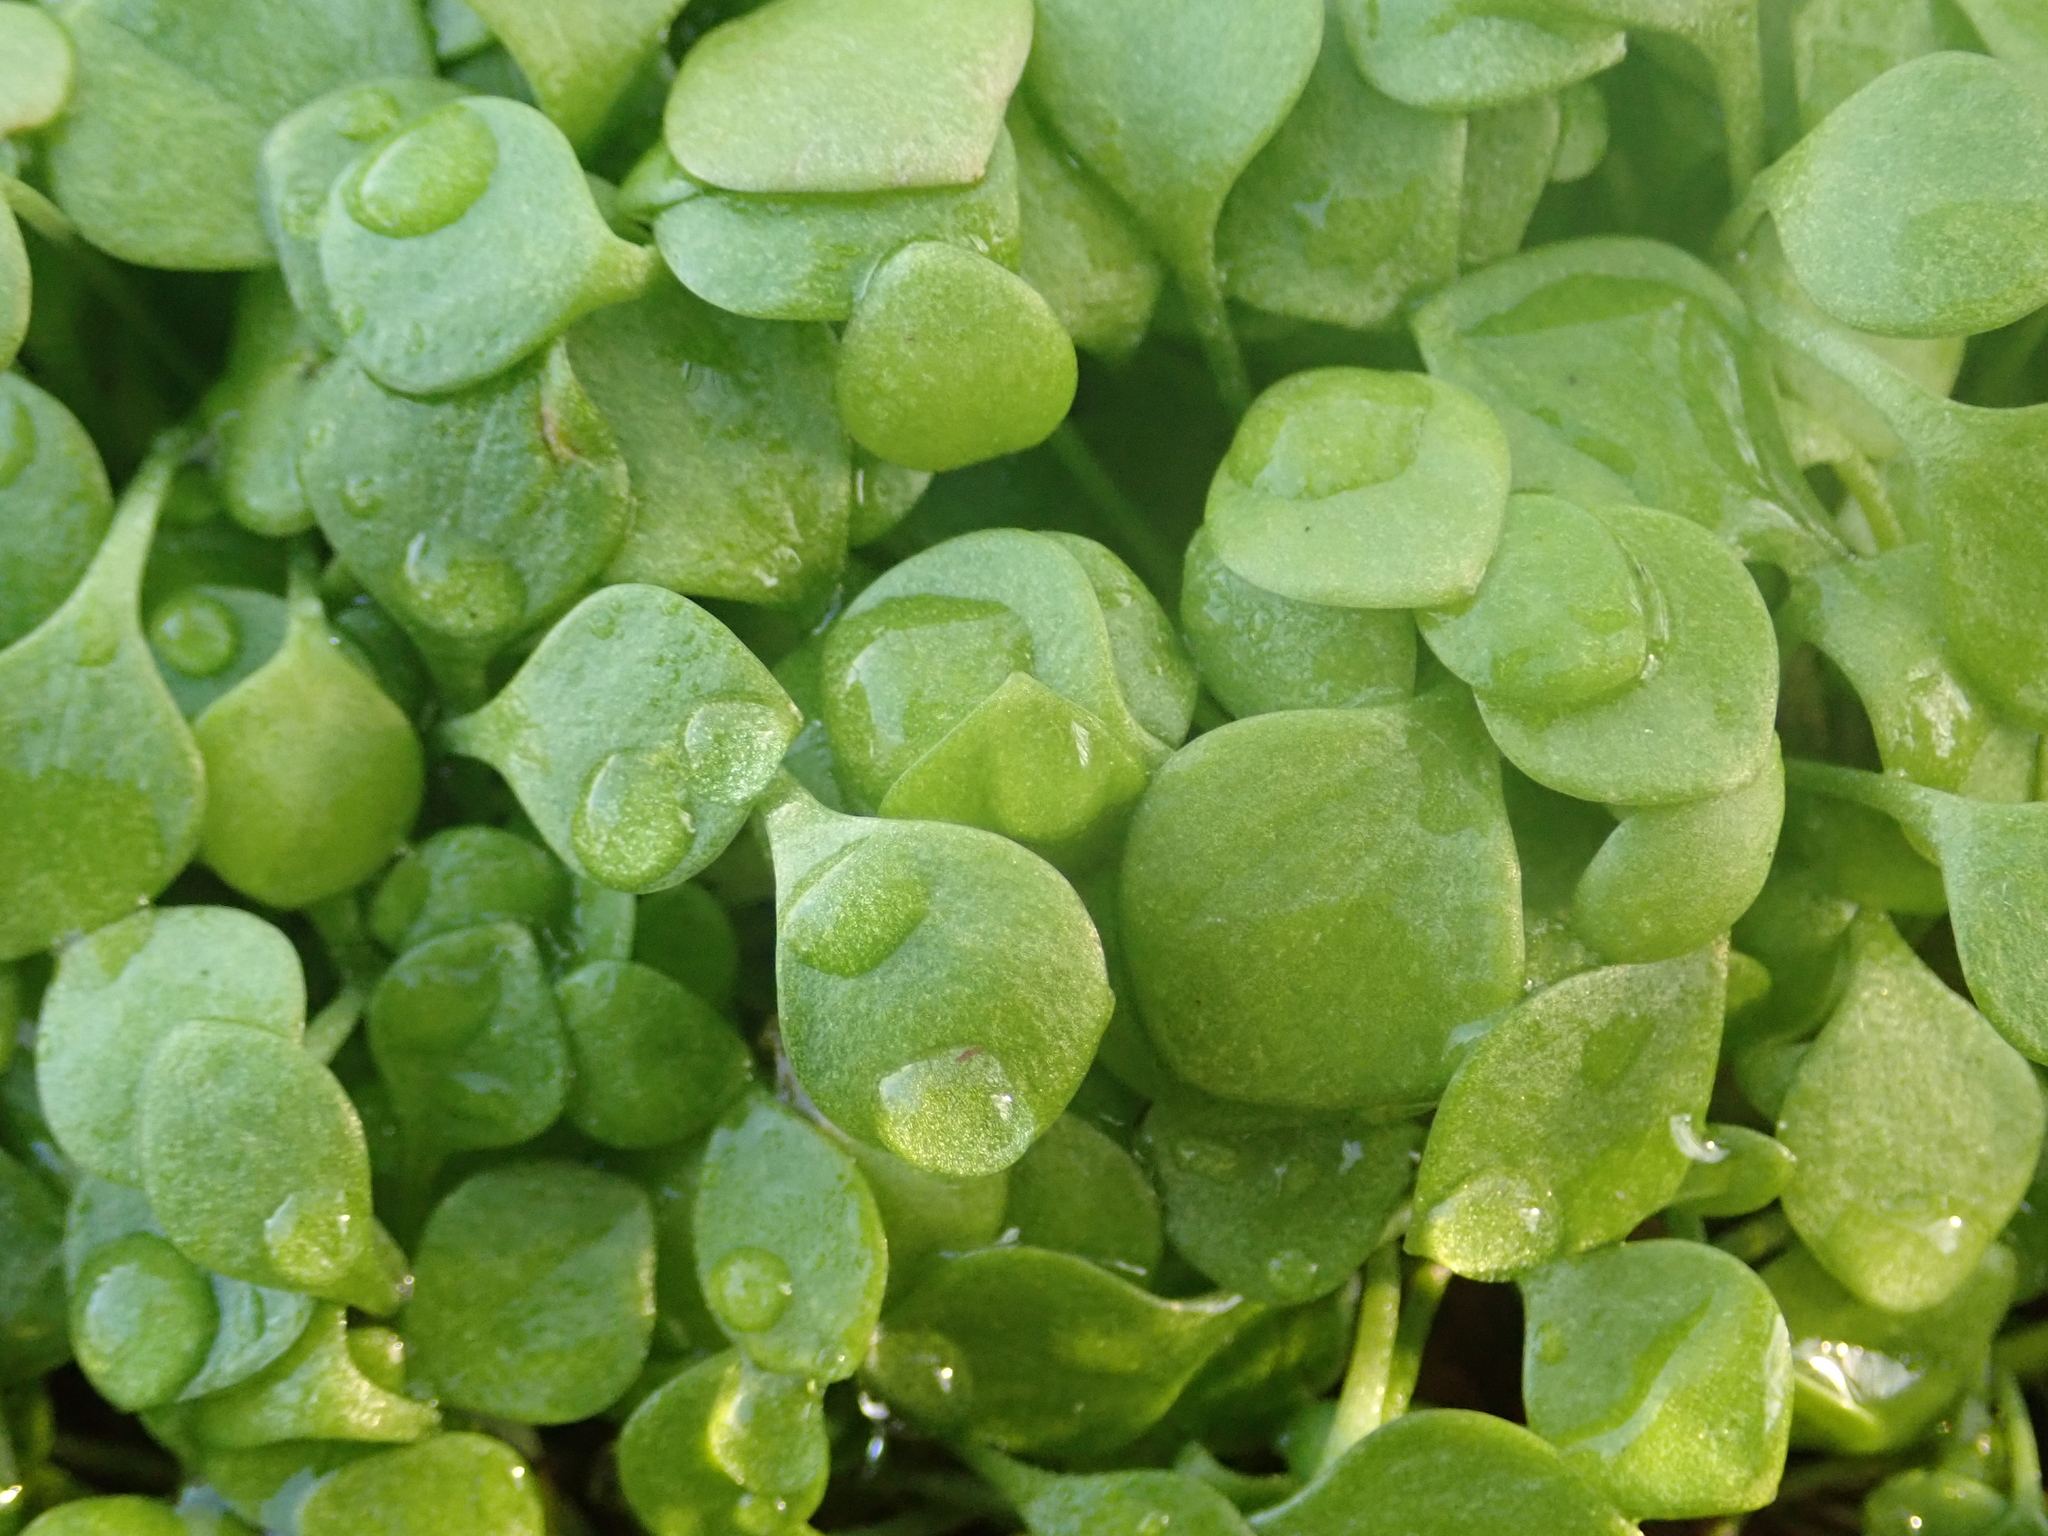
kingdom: Plantae
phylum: Tracheophyta
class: Magnoliopsida
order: Caryophyllales
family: Montiaceae
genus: Claytonia
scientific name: Claytonia perfoliata
